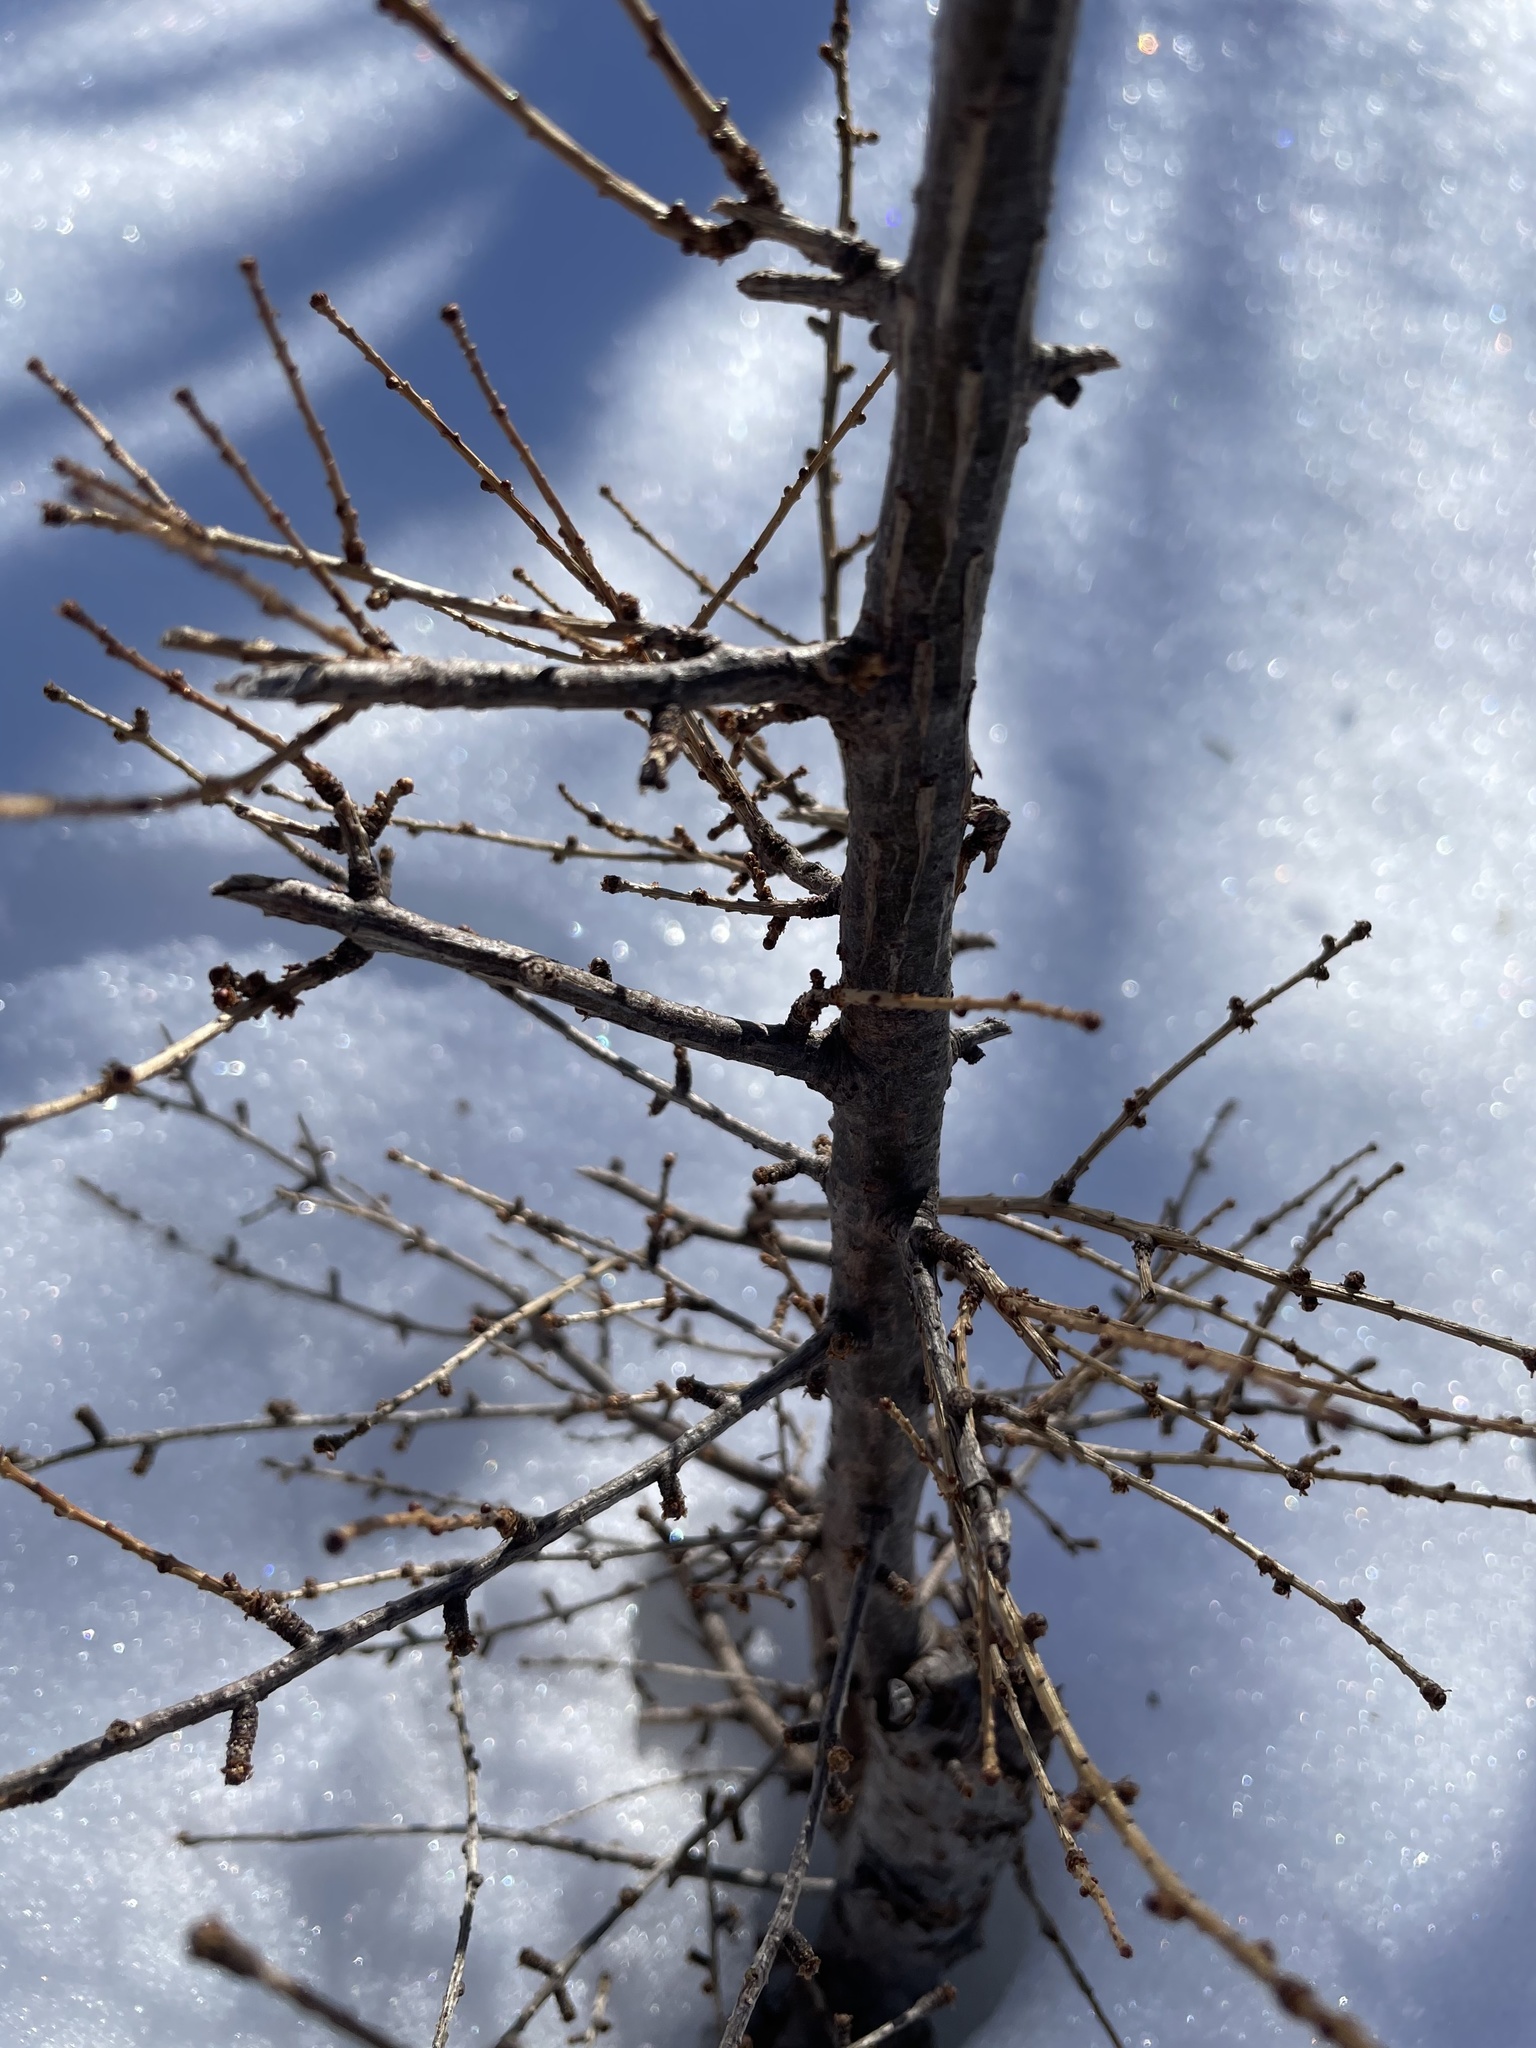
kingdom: Plantae
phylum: Tracheophyta
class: Pinopsida
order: Pinales
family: Pinaceae
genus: Larix
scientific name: Larix laricina
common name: American larch
